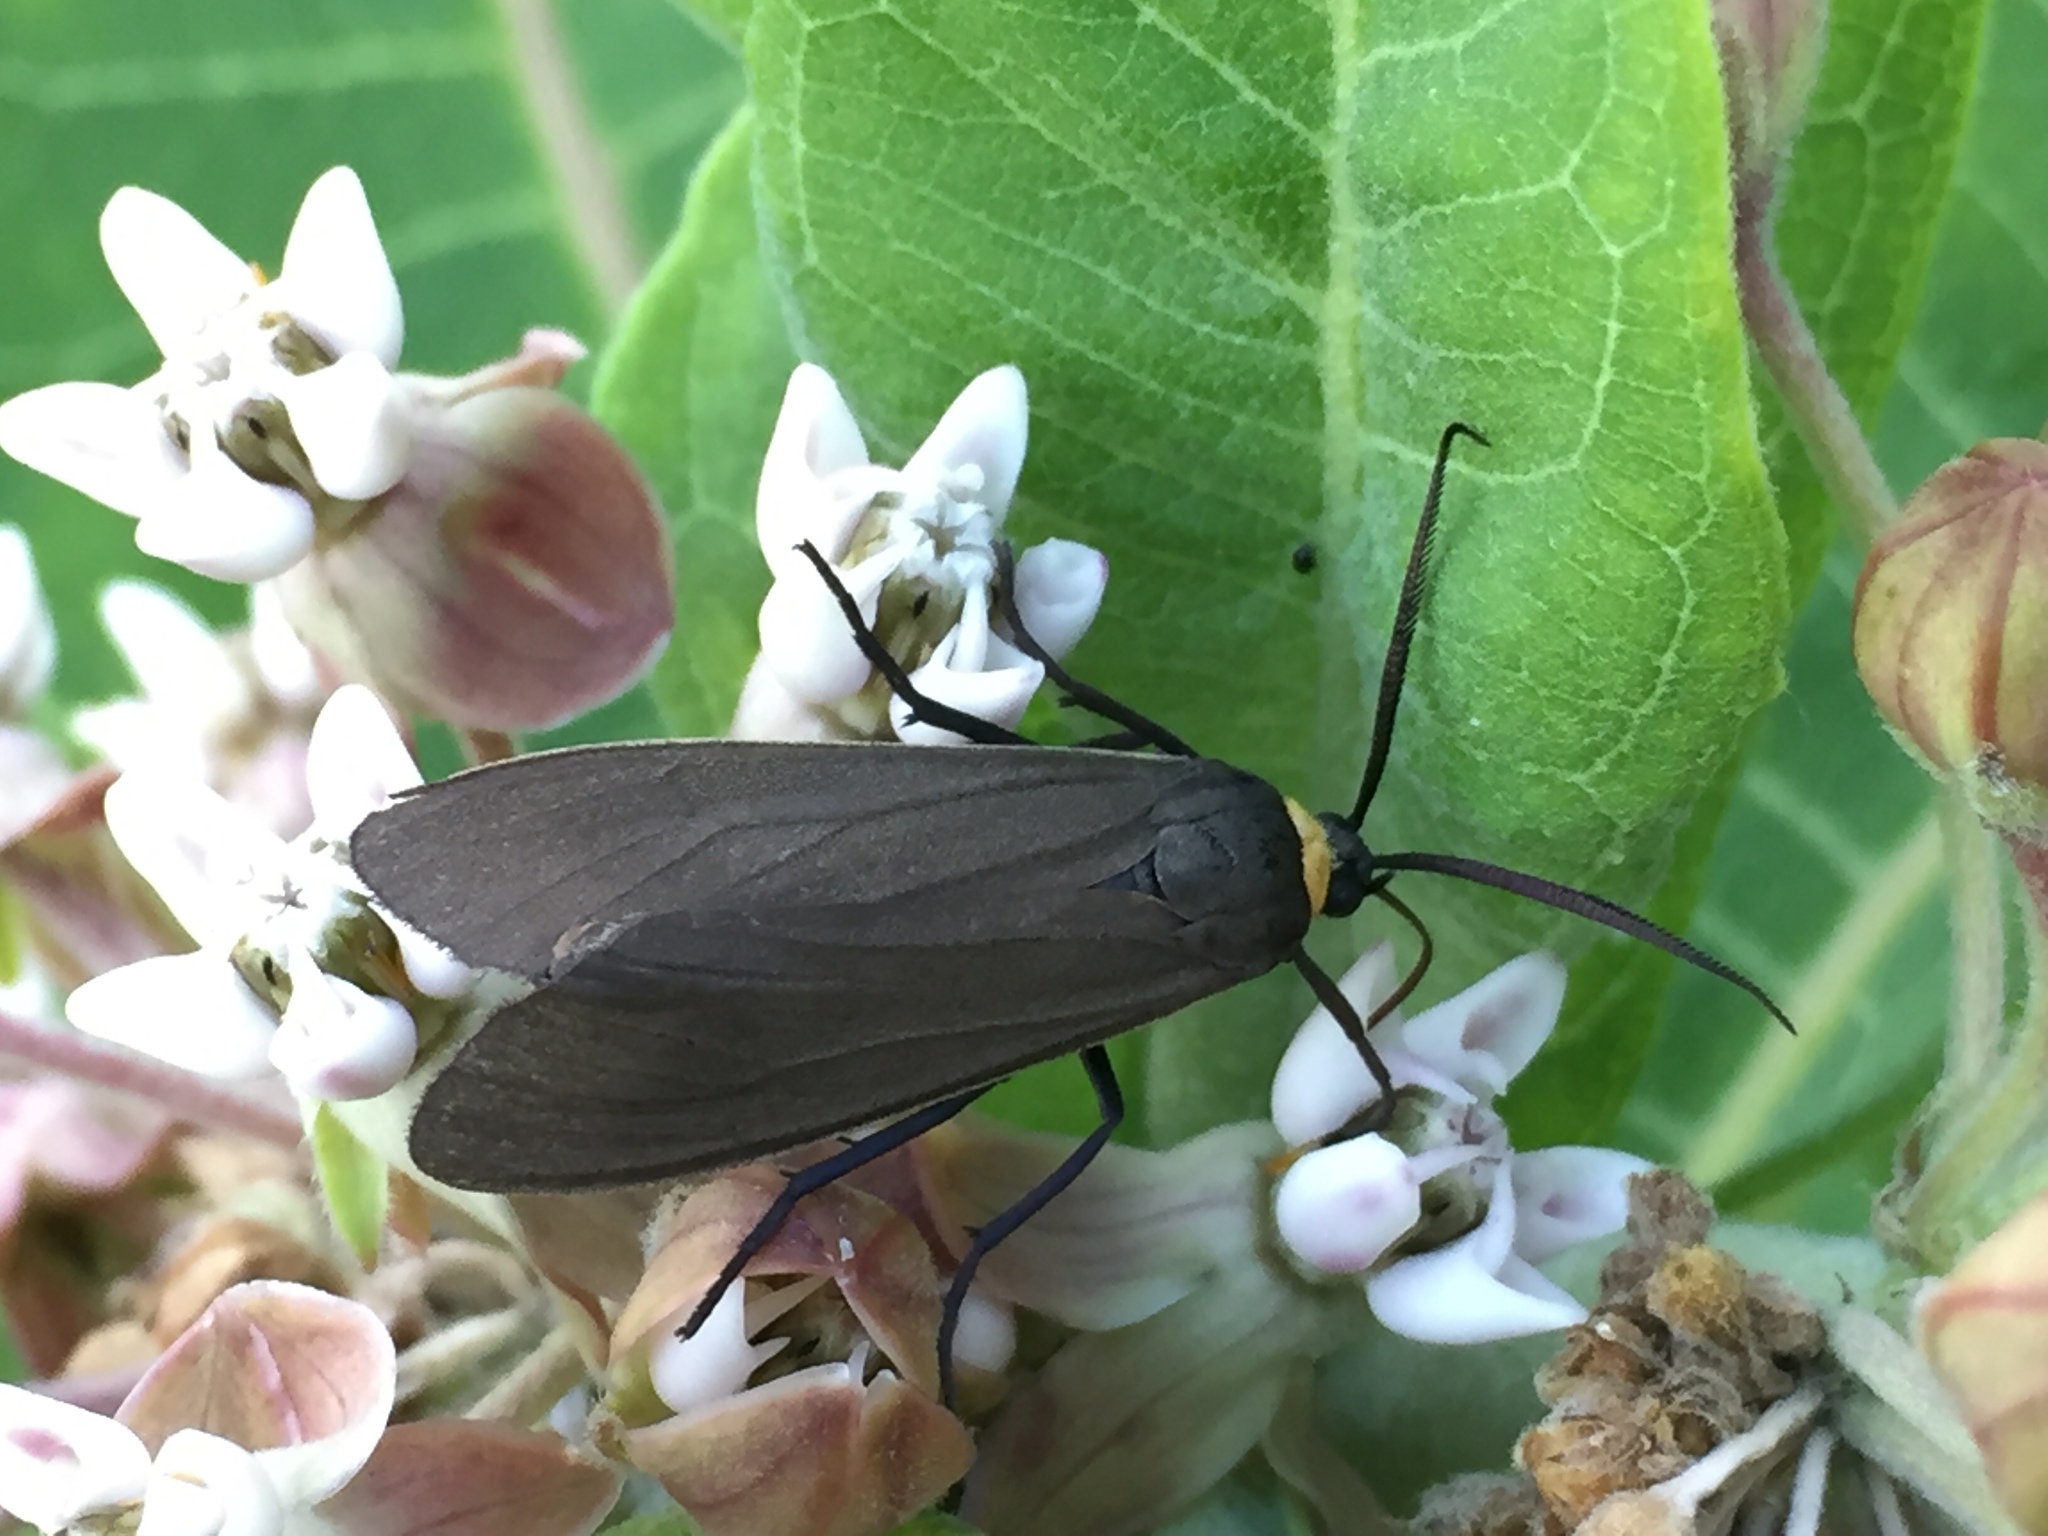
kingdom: Animalia
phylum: Arthropoda
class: Insecta
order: Lepidoptera
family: Erebidae
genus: Cisseps
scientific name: Cisseps fulvicollis
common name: Yellow-collared scape moth
